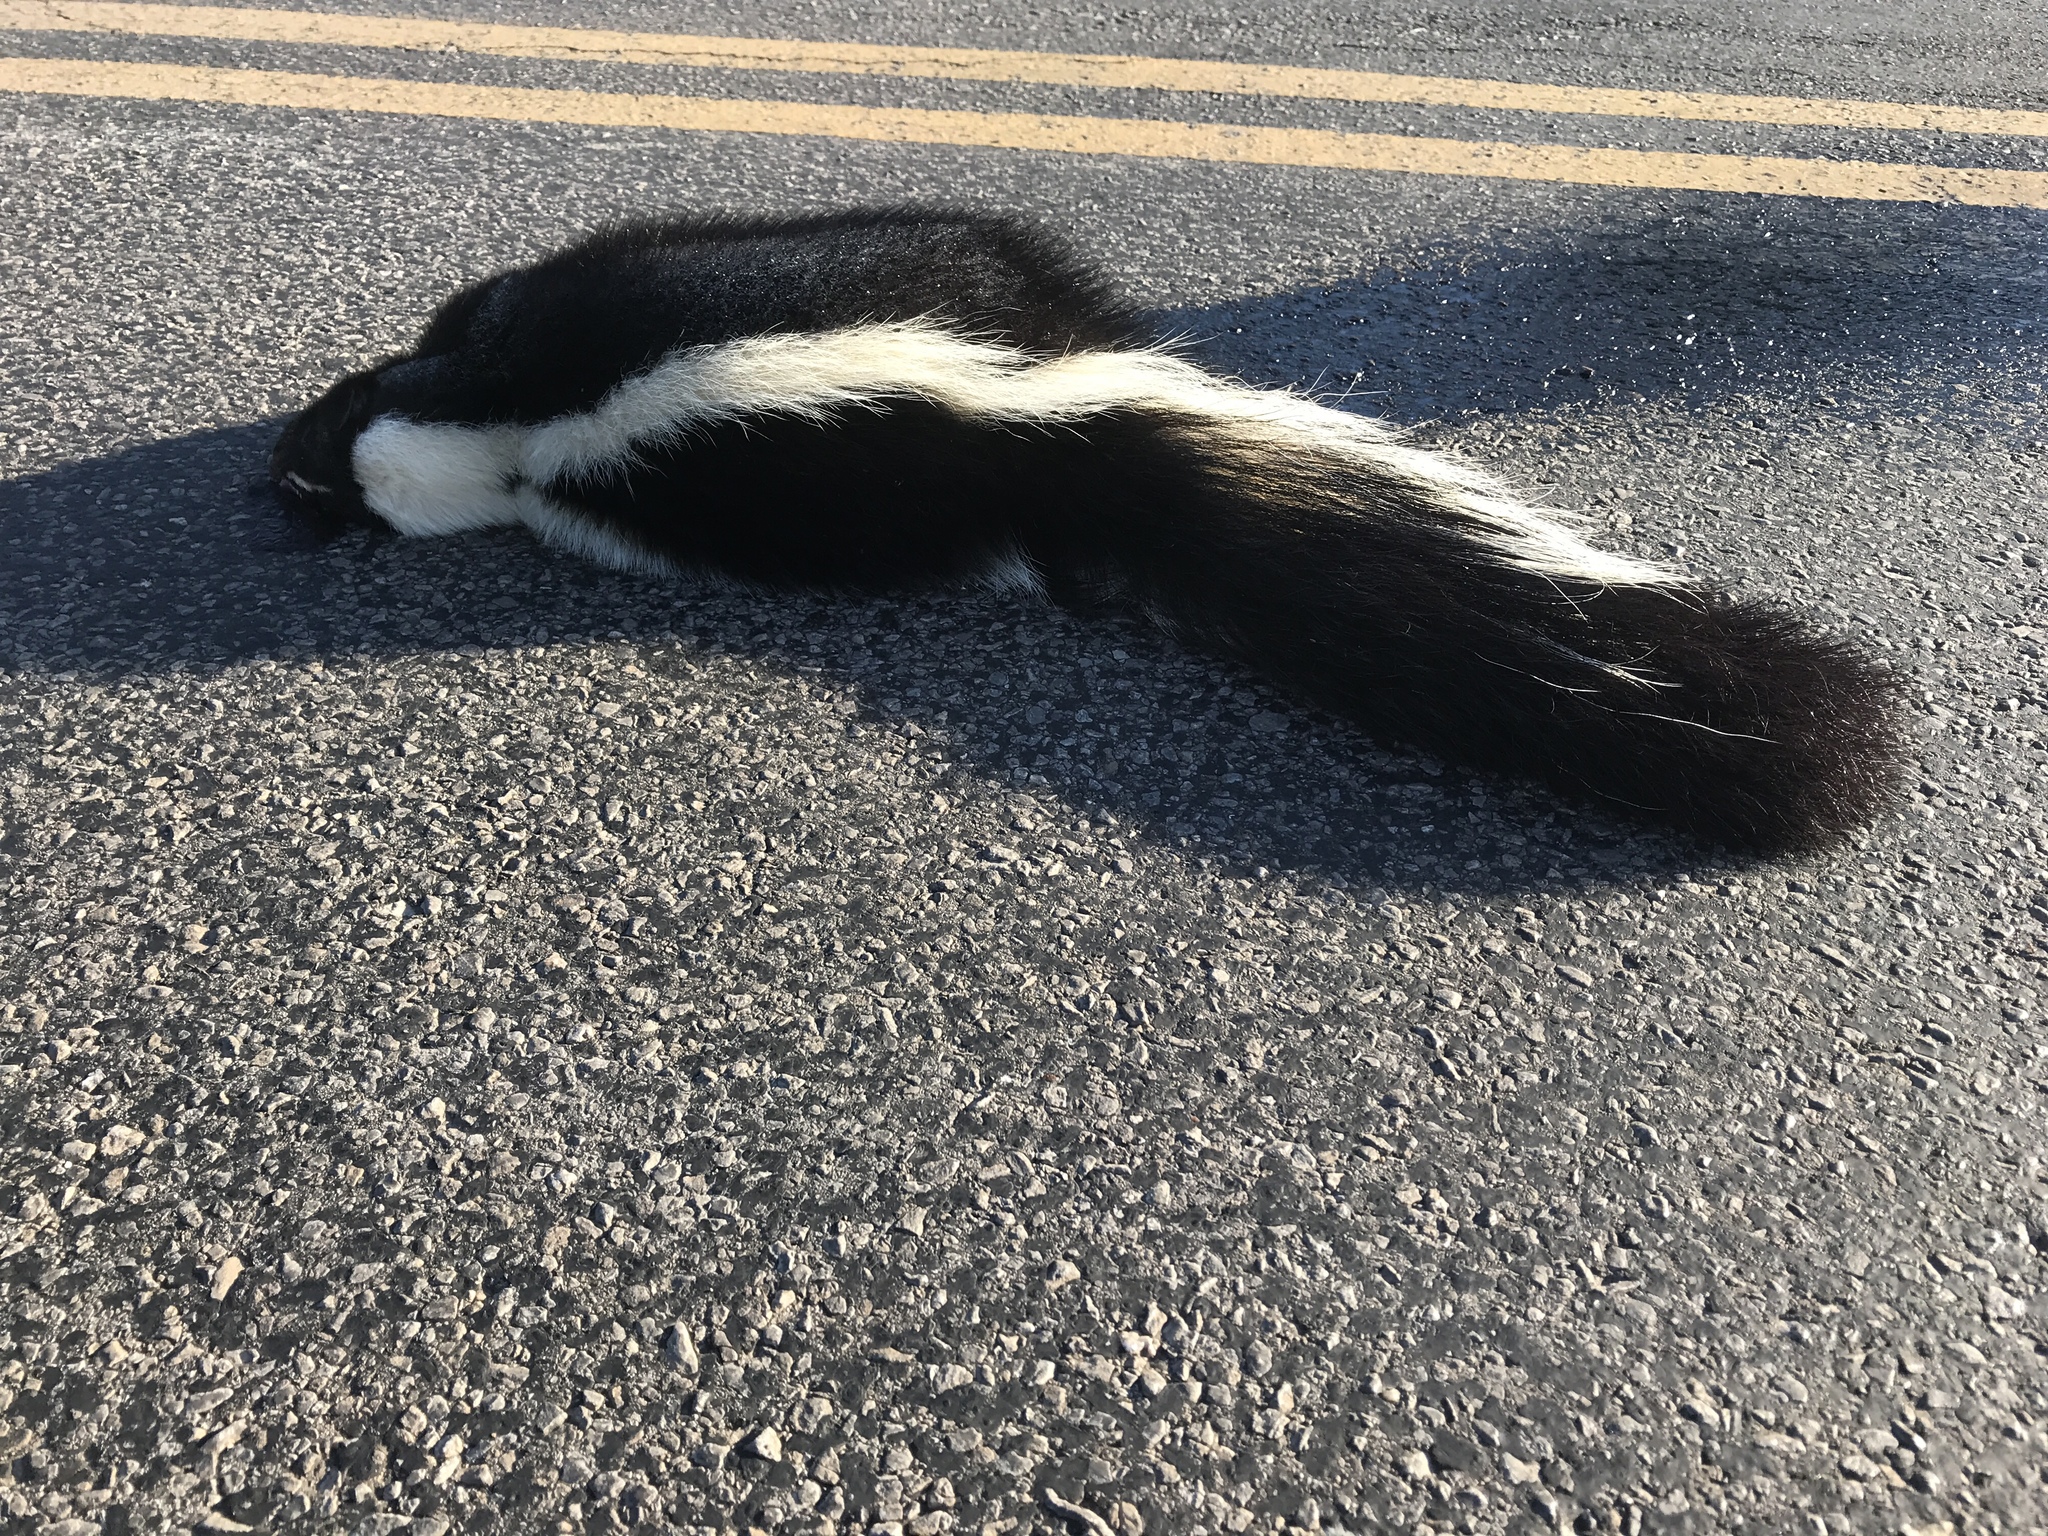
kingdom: Animalia
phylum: Chordata
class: Mammalia
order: Carnivora
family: Mephitidae
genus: Mephitis
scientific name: Mephitis mephitis
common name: Striped skunk
